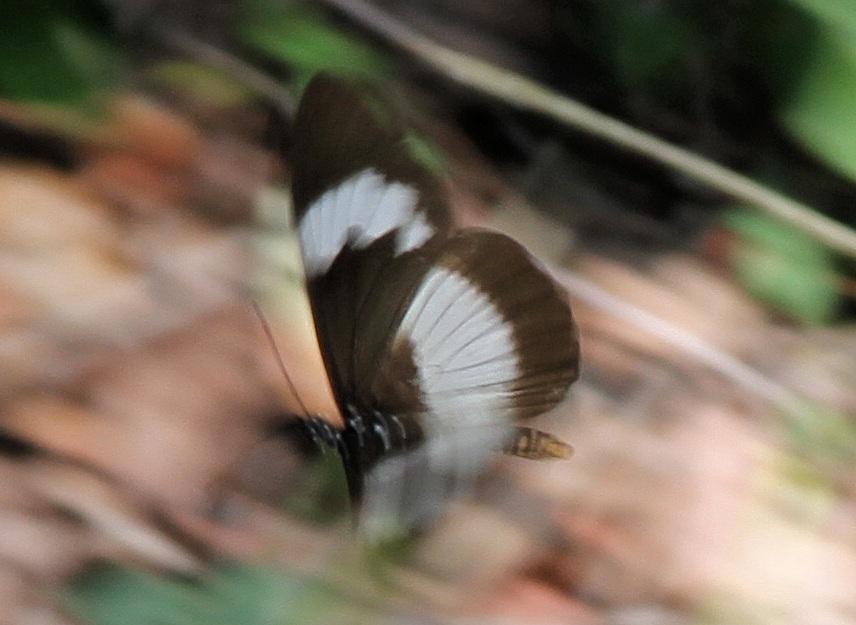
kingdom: Animalia
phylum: Arthropoda
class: Insecta
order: Lepidoptera
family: Nymphalidae
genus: Acraea
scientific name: Acraea Bematistes aganice
